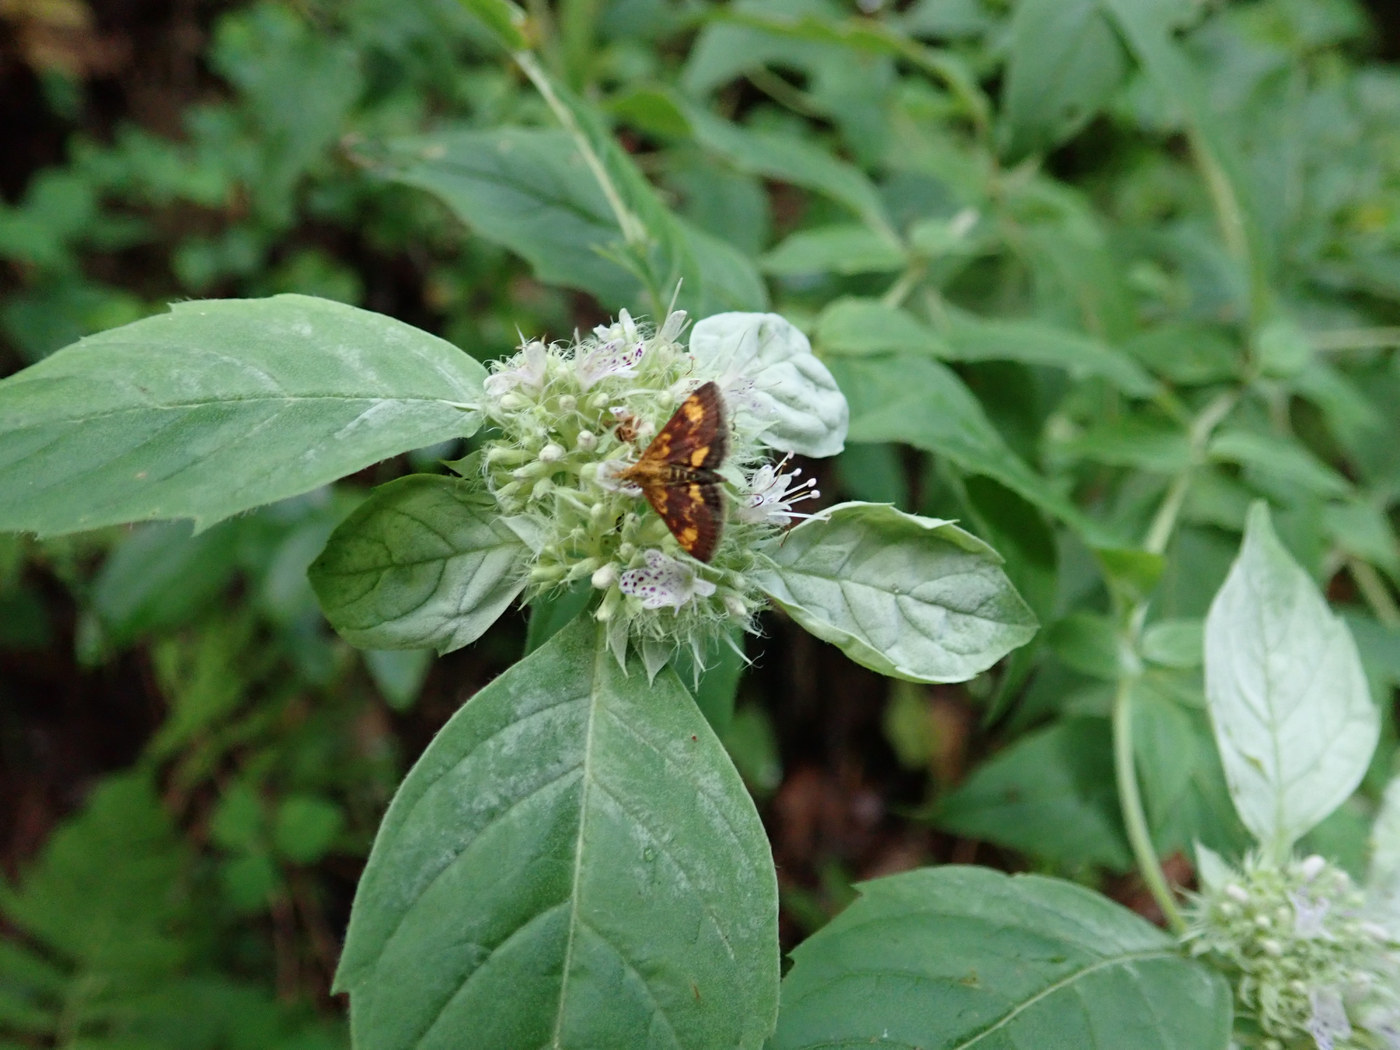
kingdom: Animalia
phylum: Arthropoda
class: Insecta
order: Lepidoptera
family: Crambidae
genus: Pyrausta
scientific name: Pyrausta orphisalis
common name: Orange mint moth
